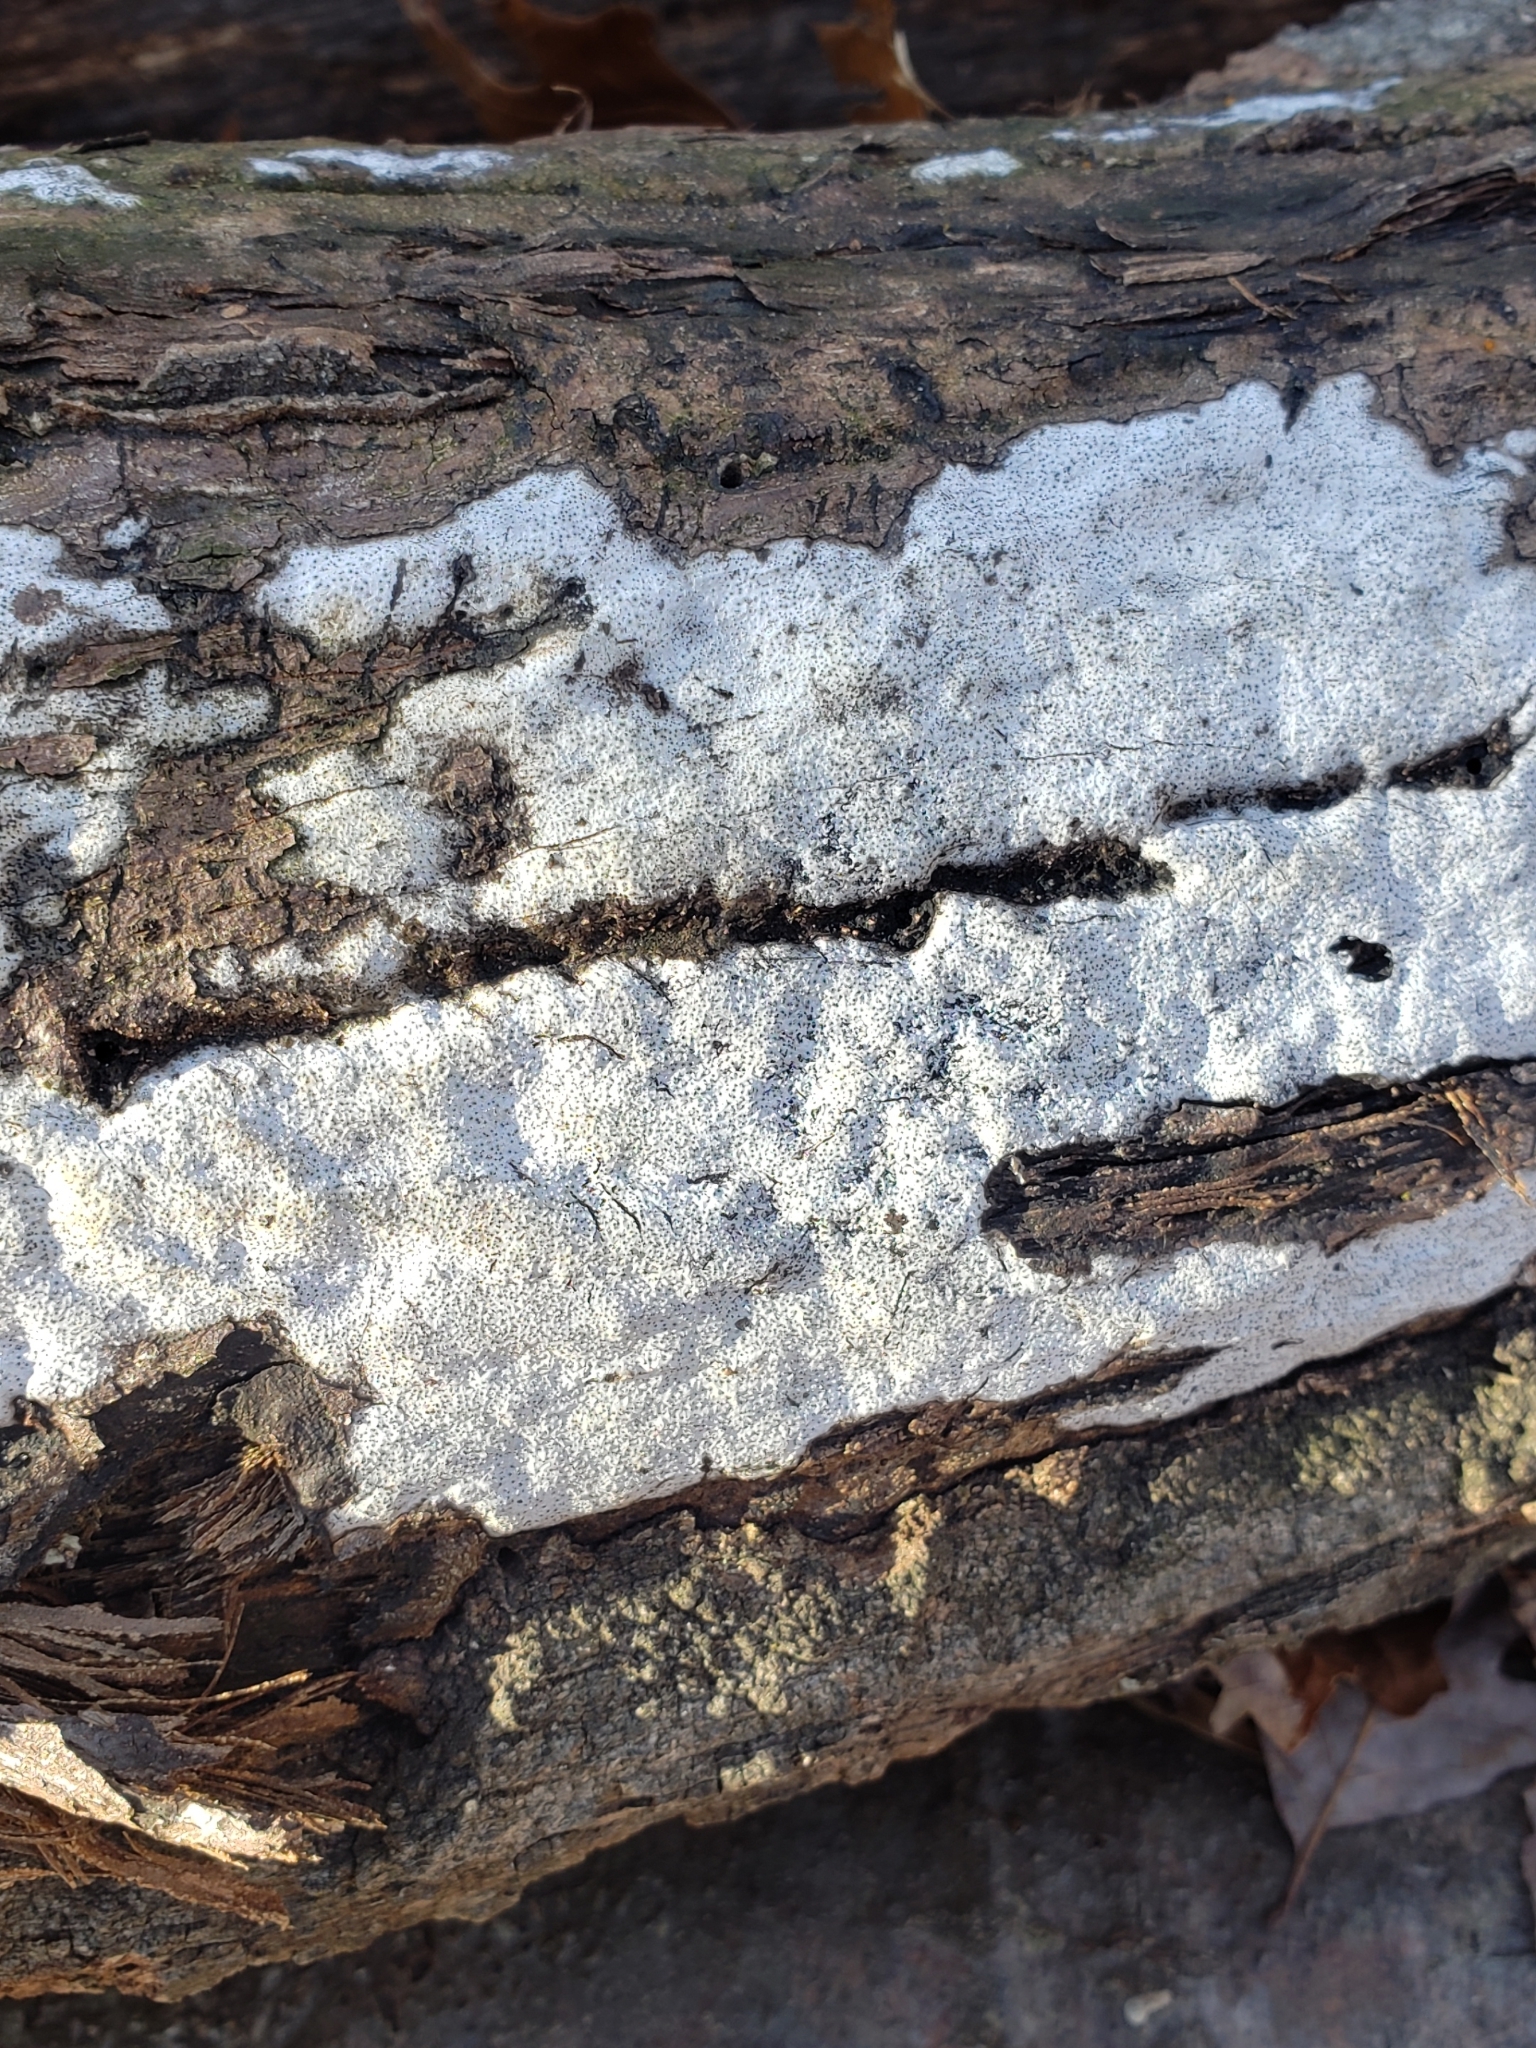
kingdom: Fungi
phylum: Ascomycota
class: Sordariomycetes
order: Xylariales
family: Graphostromataceae
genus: Biscogniauxia
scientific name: Biscogniauxia atropunctata
